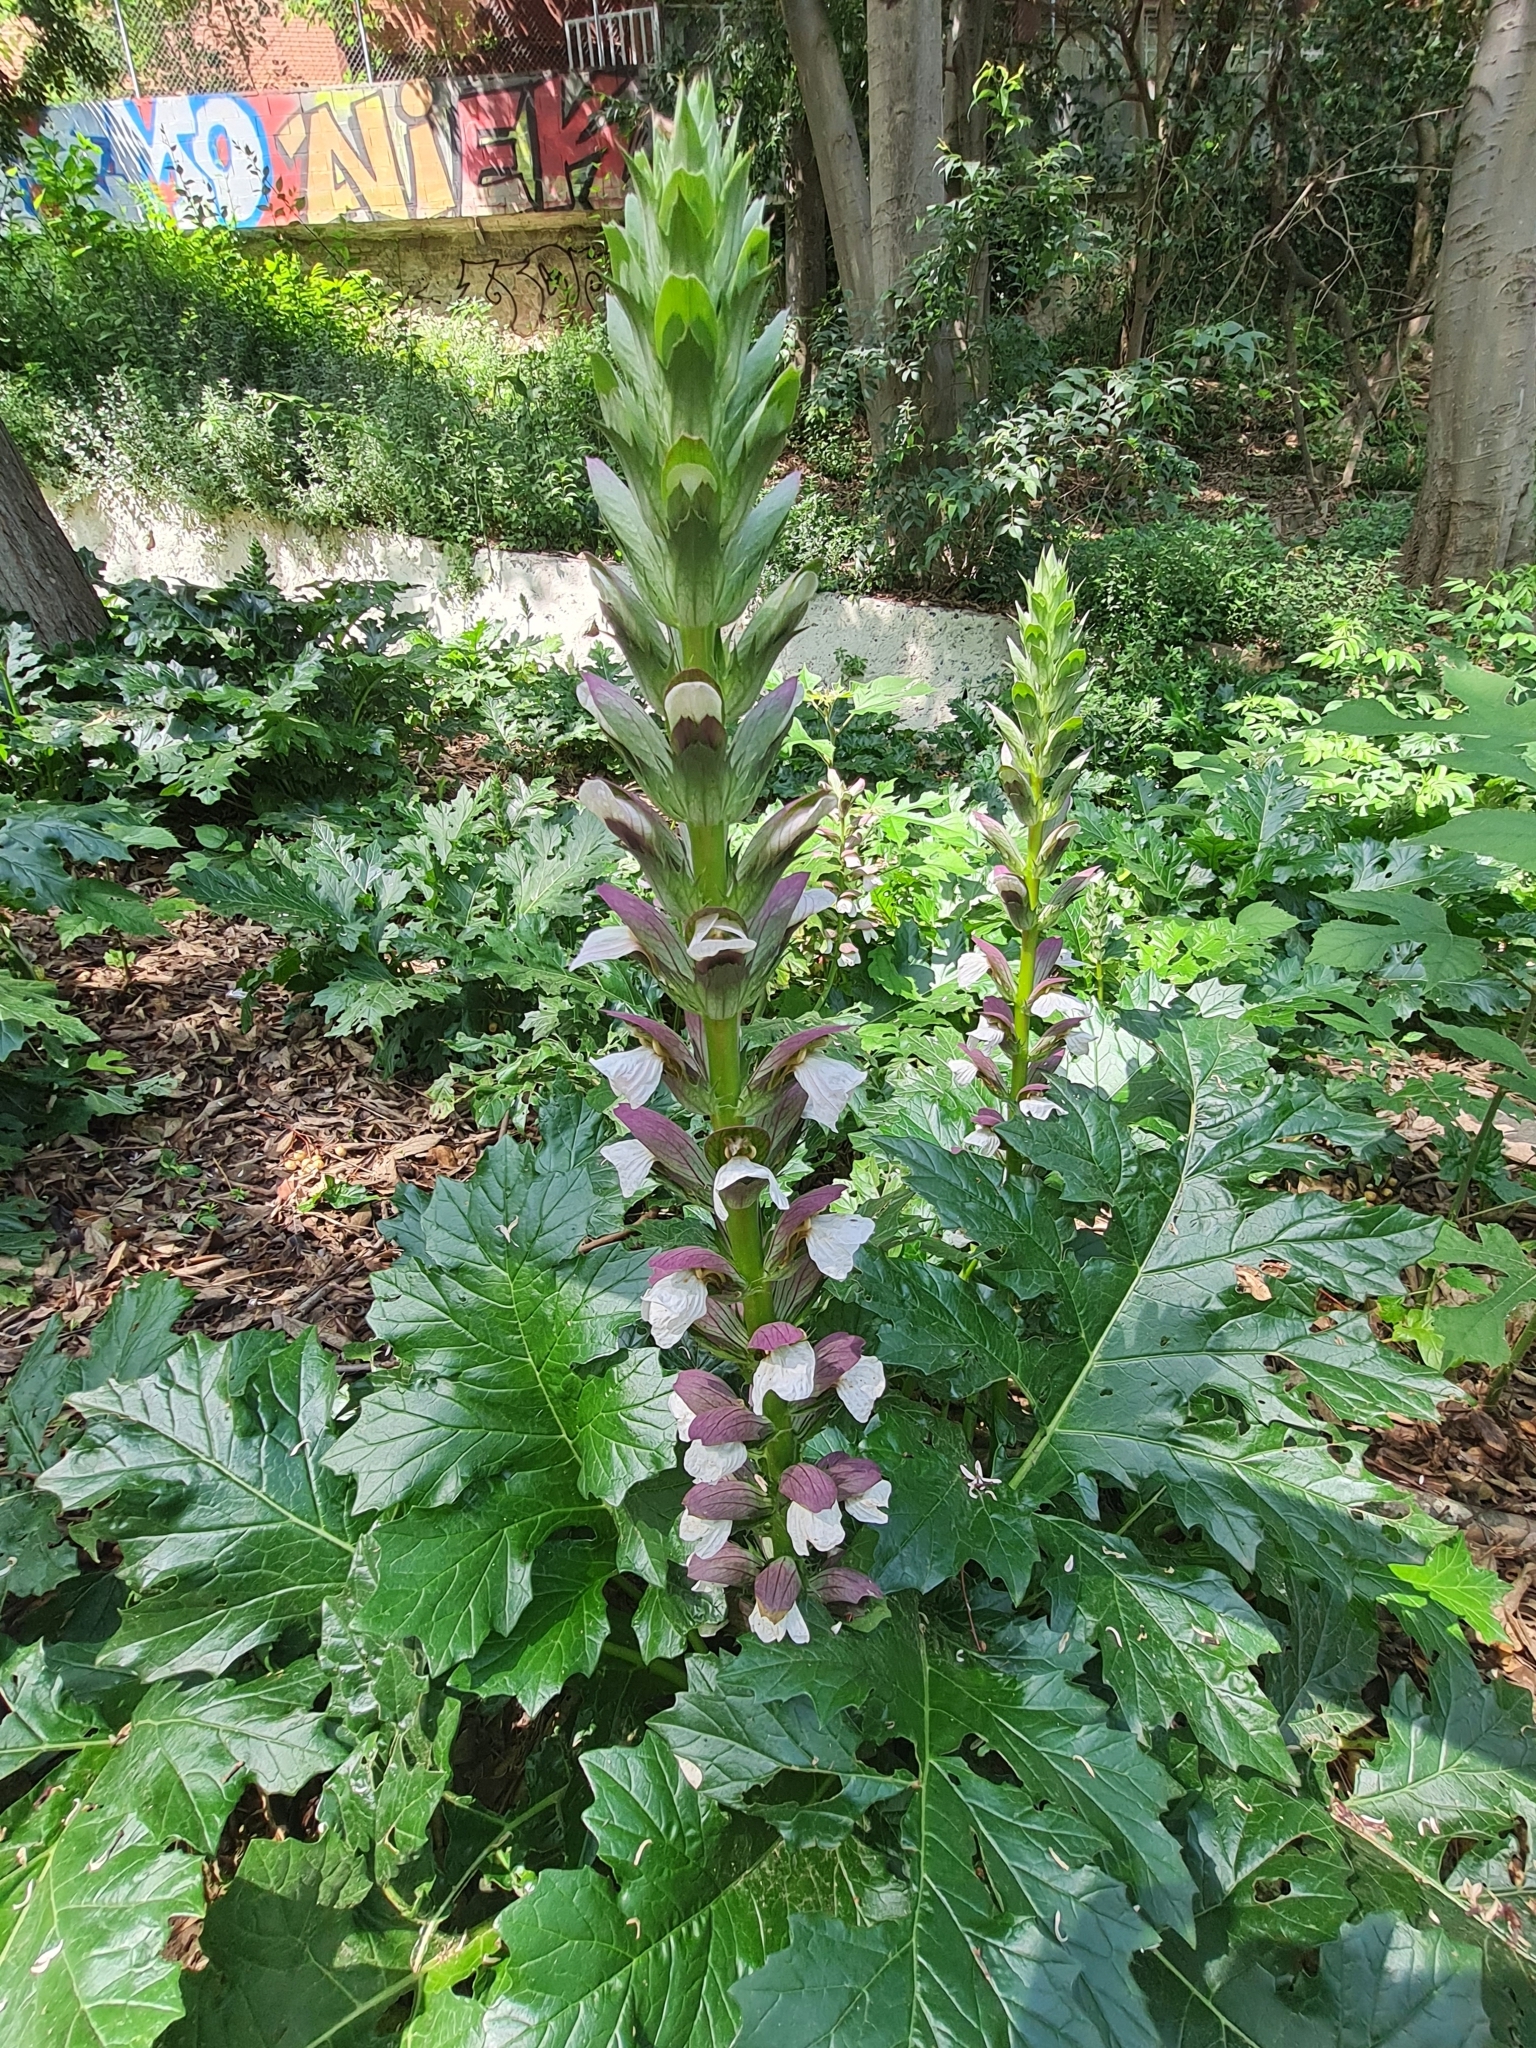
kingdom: Plantae
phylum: Tracheophyta
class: Magnoliopsida
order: Lamiales
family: Acanthaceae
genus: Acanthus
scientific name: Acanthus mollis
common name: Bear's-breech
